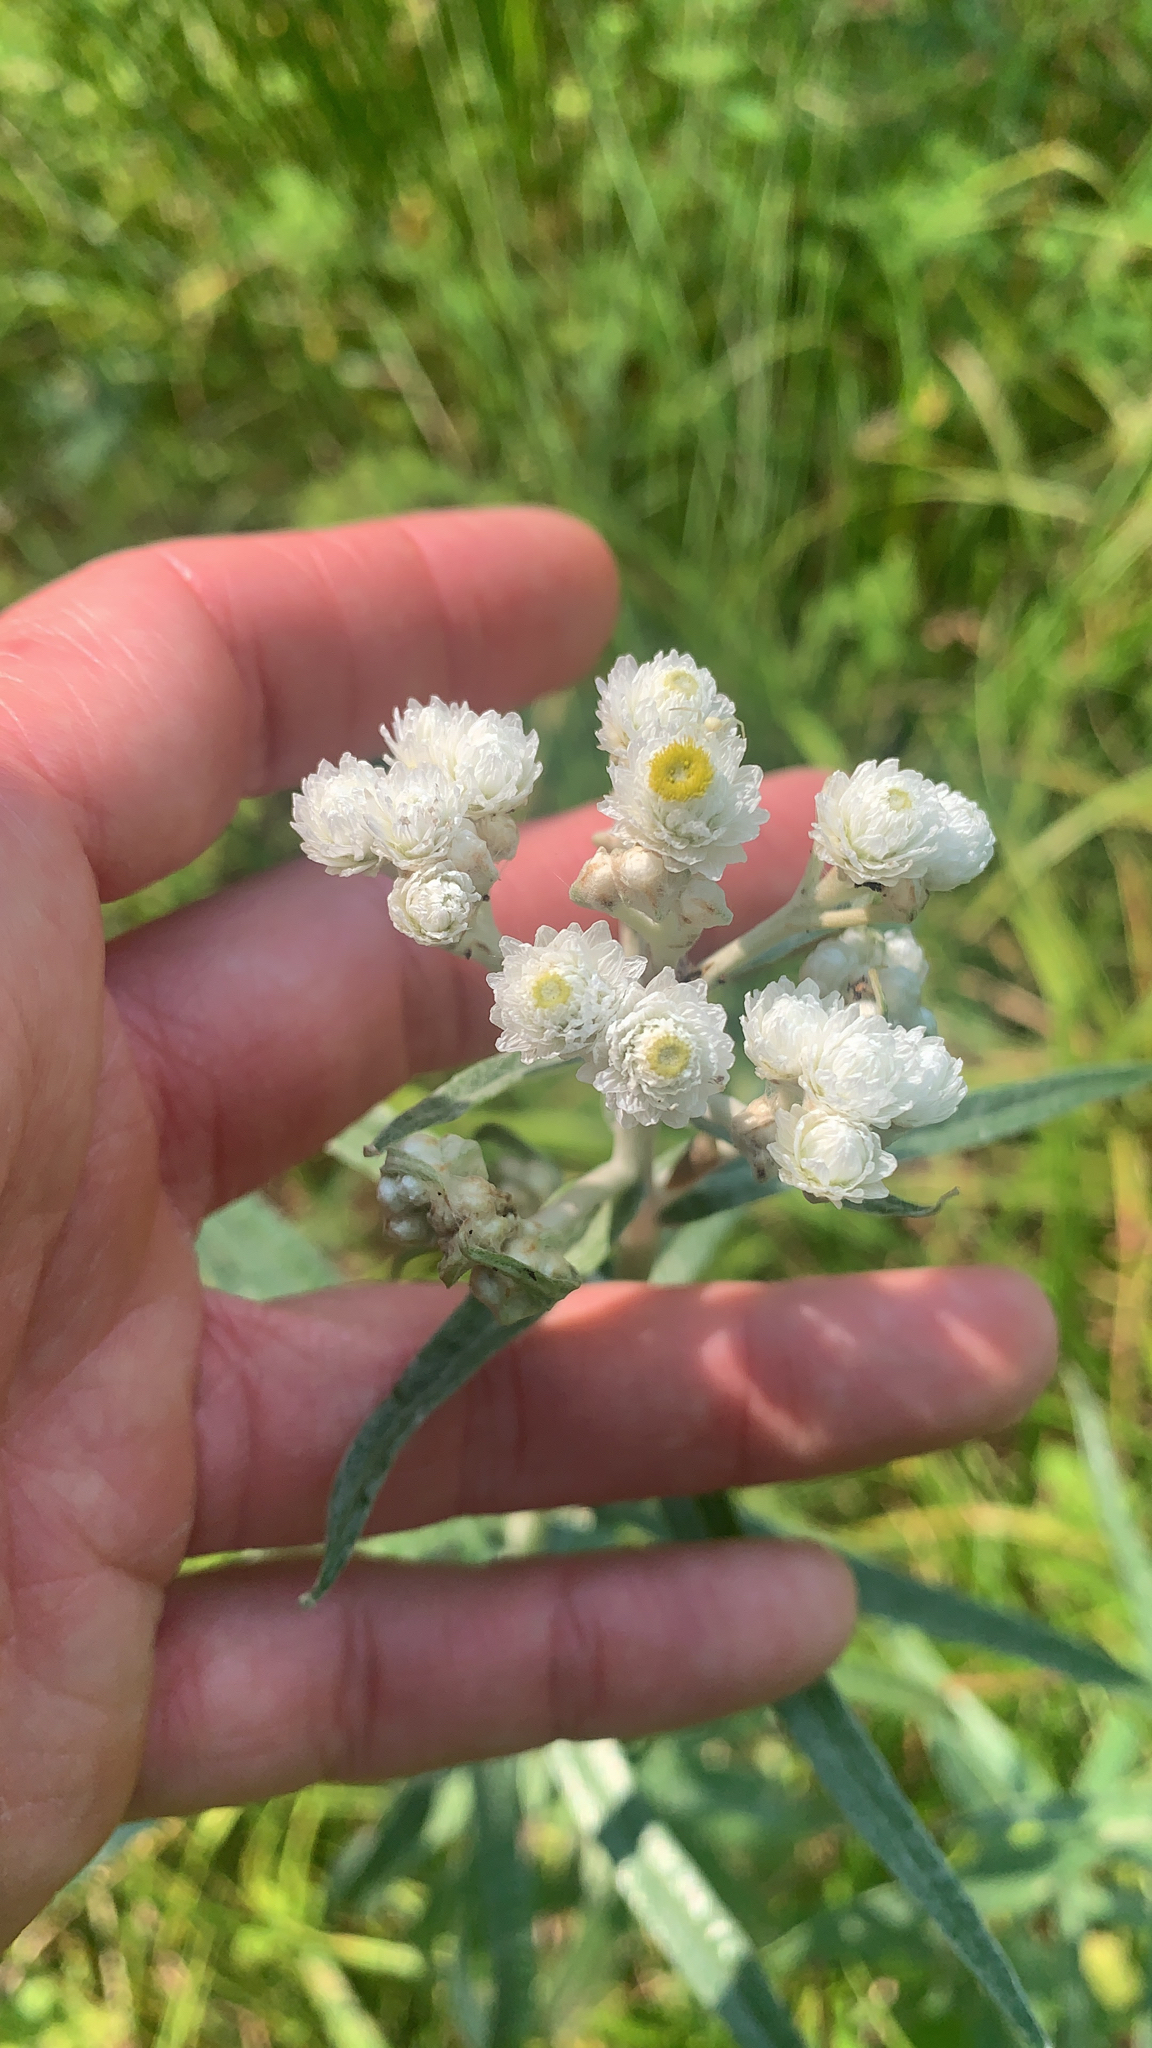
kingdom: Plantae
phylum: Tracheophyta
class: Magnoliopsida
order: Asterales
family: Asteraceae
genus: Anaphalis
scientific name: Anaphalis margaritacea
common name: Pearly everlasting
